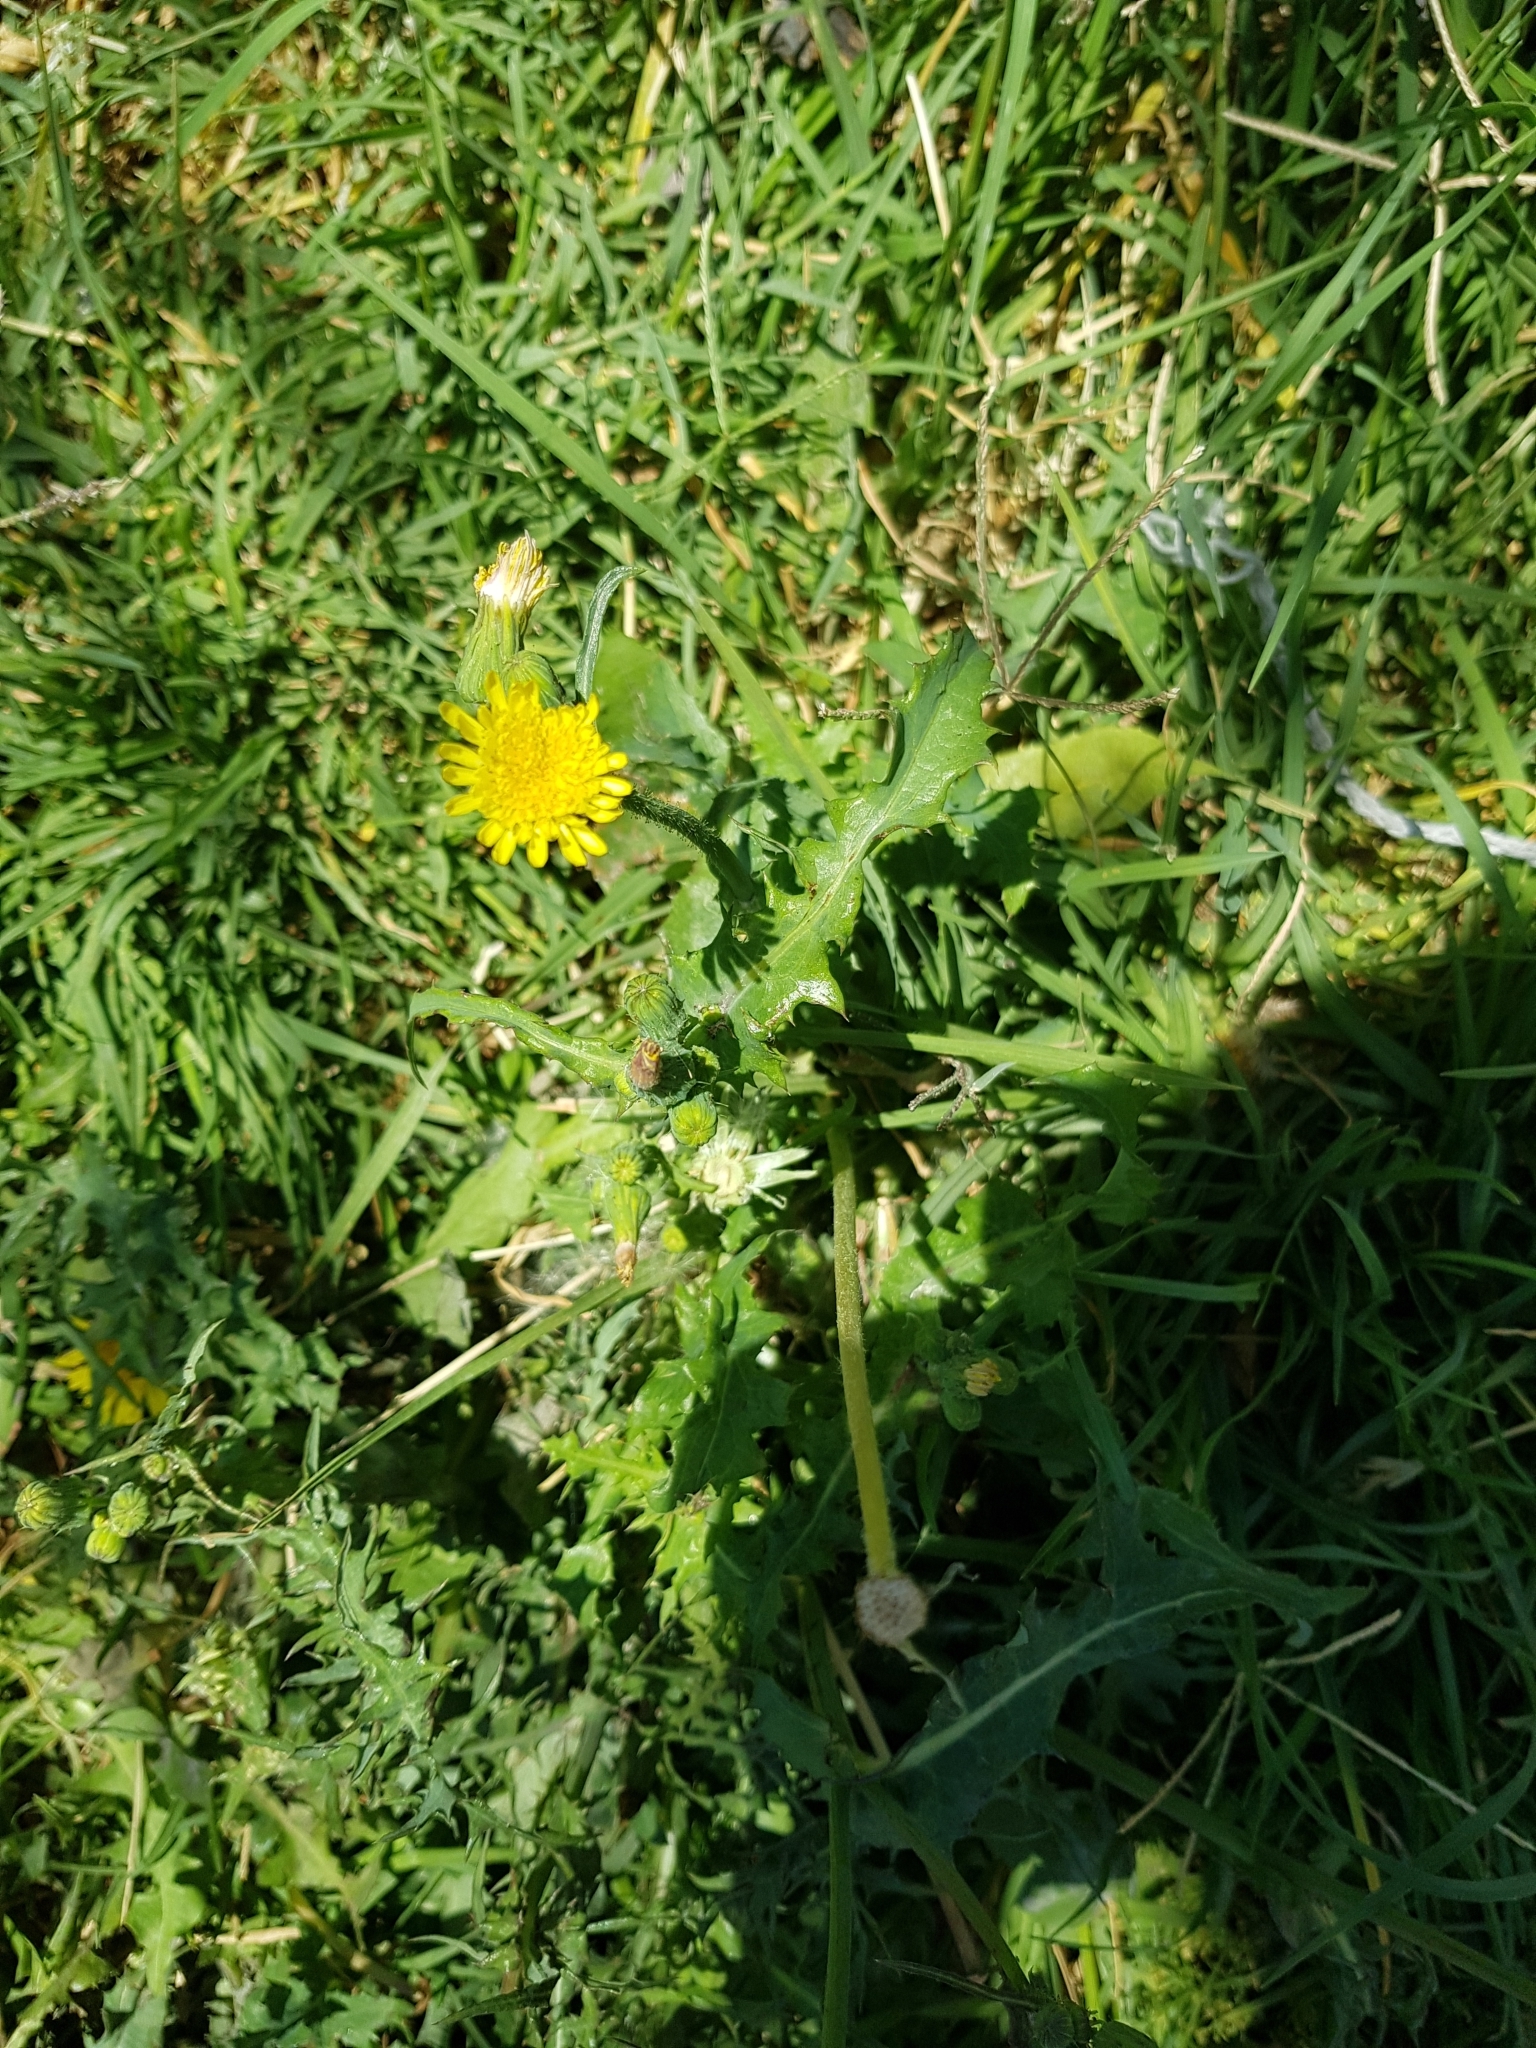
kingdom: Plantae
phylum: Tracheophyta
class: Magnoliopsida
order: Asterales
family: Asteraceae
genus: Sonchus
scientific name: Sonchus oleraceus
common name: Common sowthistle
